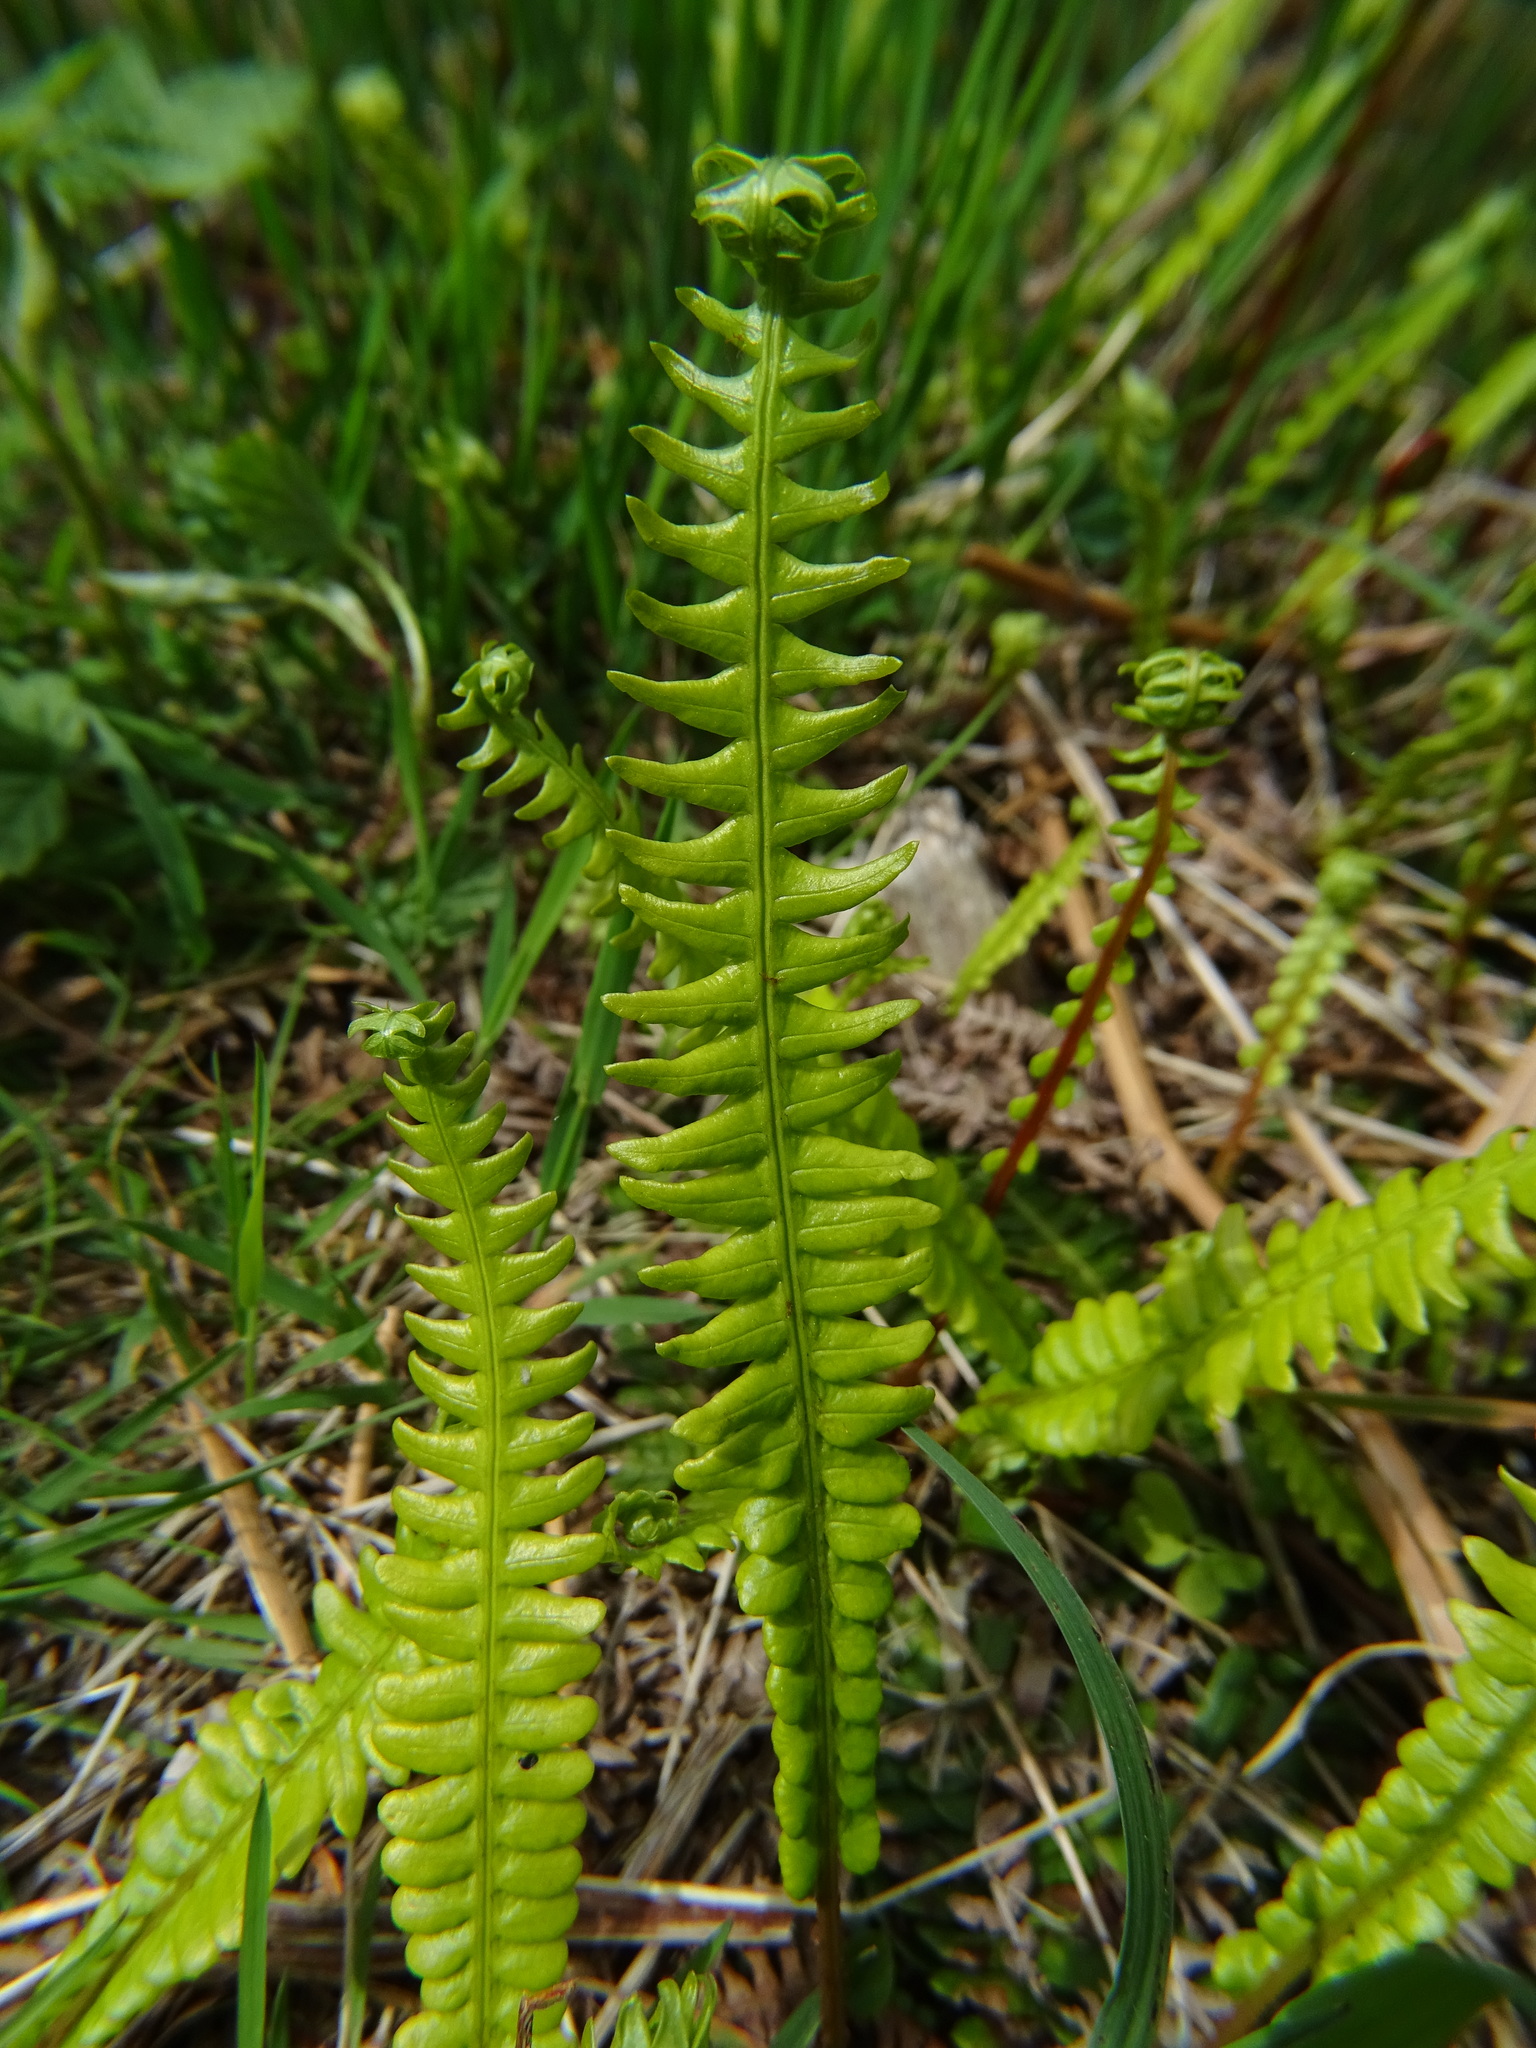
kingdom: Plantae
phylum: Tracheophyta
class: Polypodiopsida
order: Polypodiales
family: Blechnaceae
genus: Struthiopteris
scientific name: Struthiopteris spicant
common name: Deer fern
